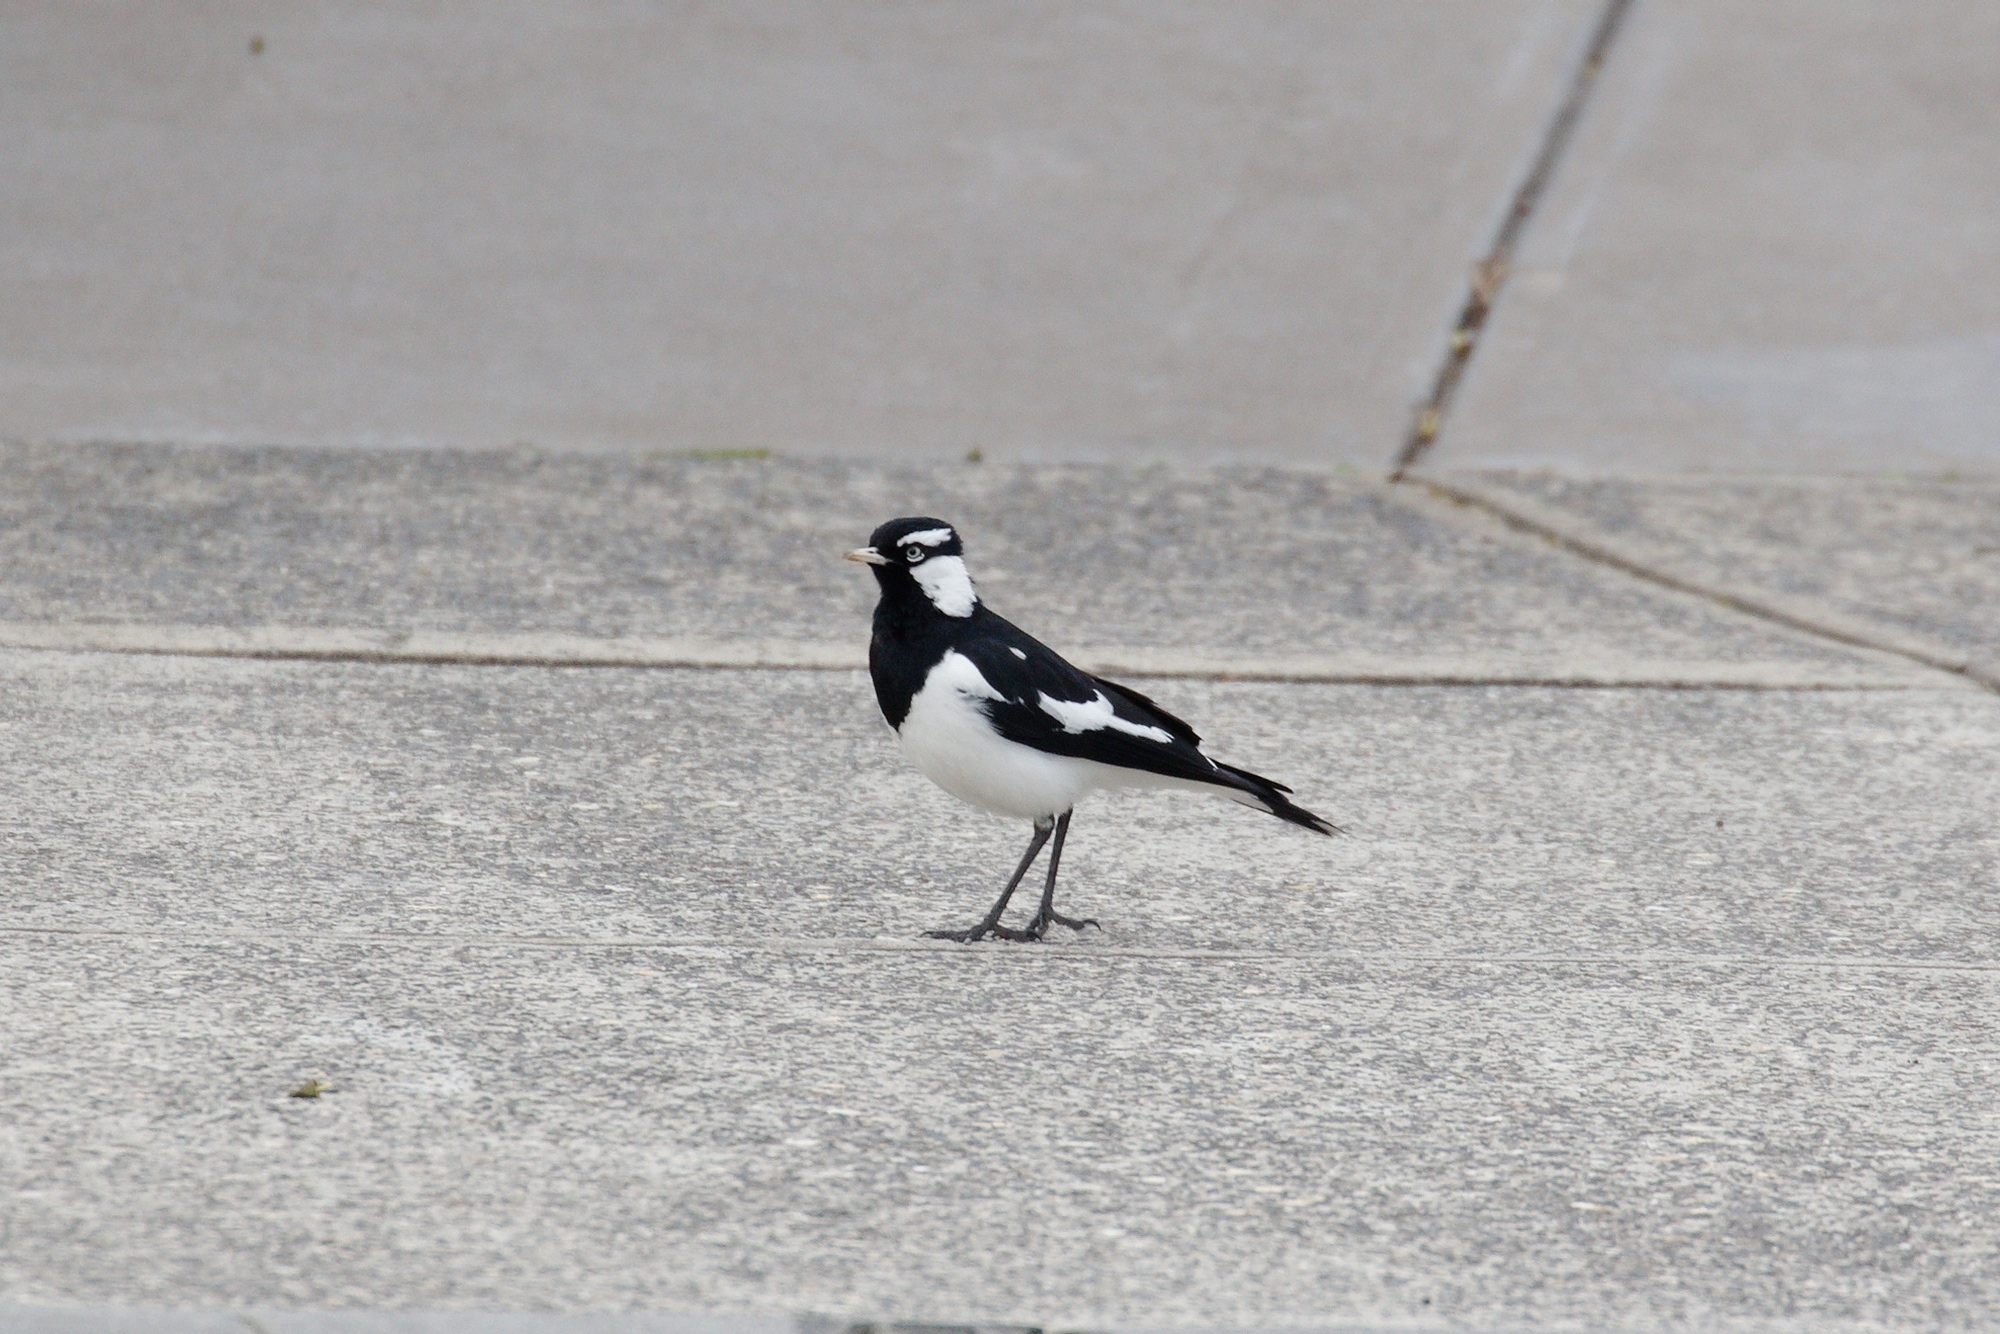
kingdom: Animalia
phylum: Chordata
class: Aves
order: Passeriformes
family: Monarchidae
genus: Grallina
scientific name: Grallina cyanoleuca
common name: Magpie-lark
